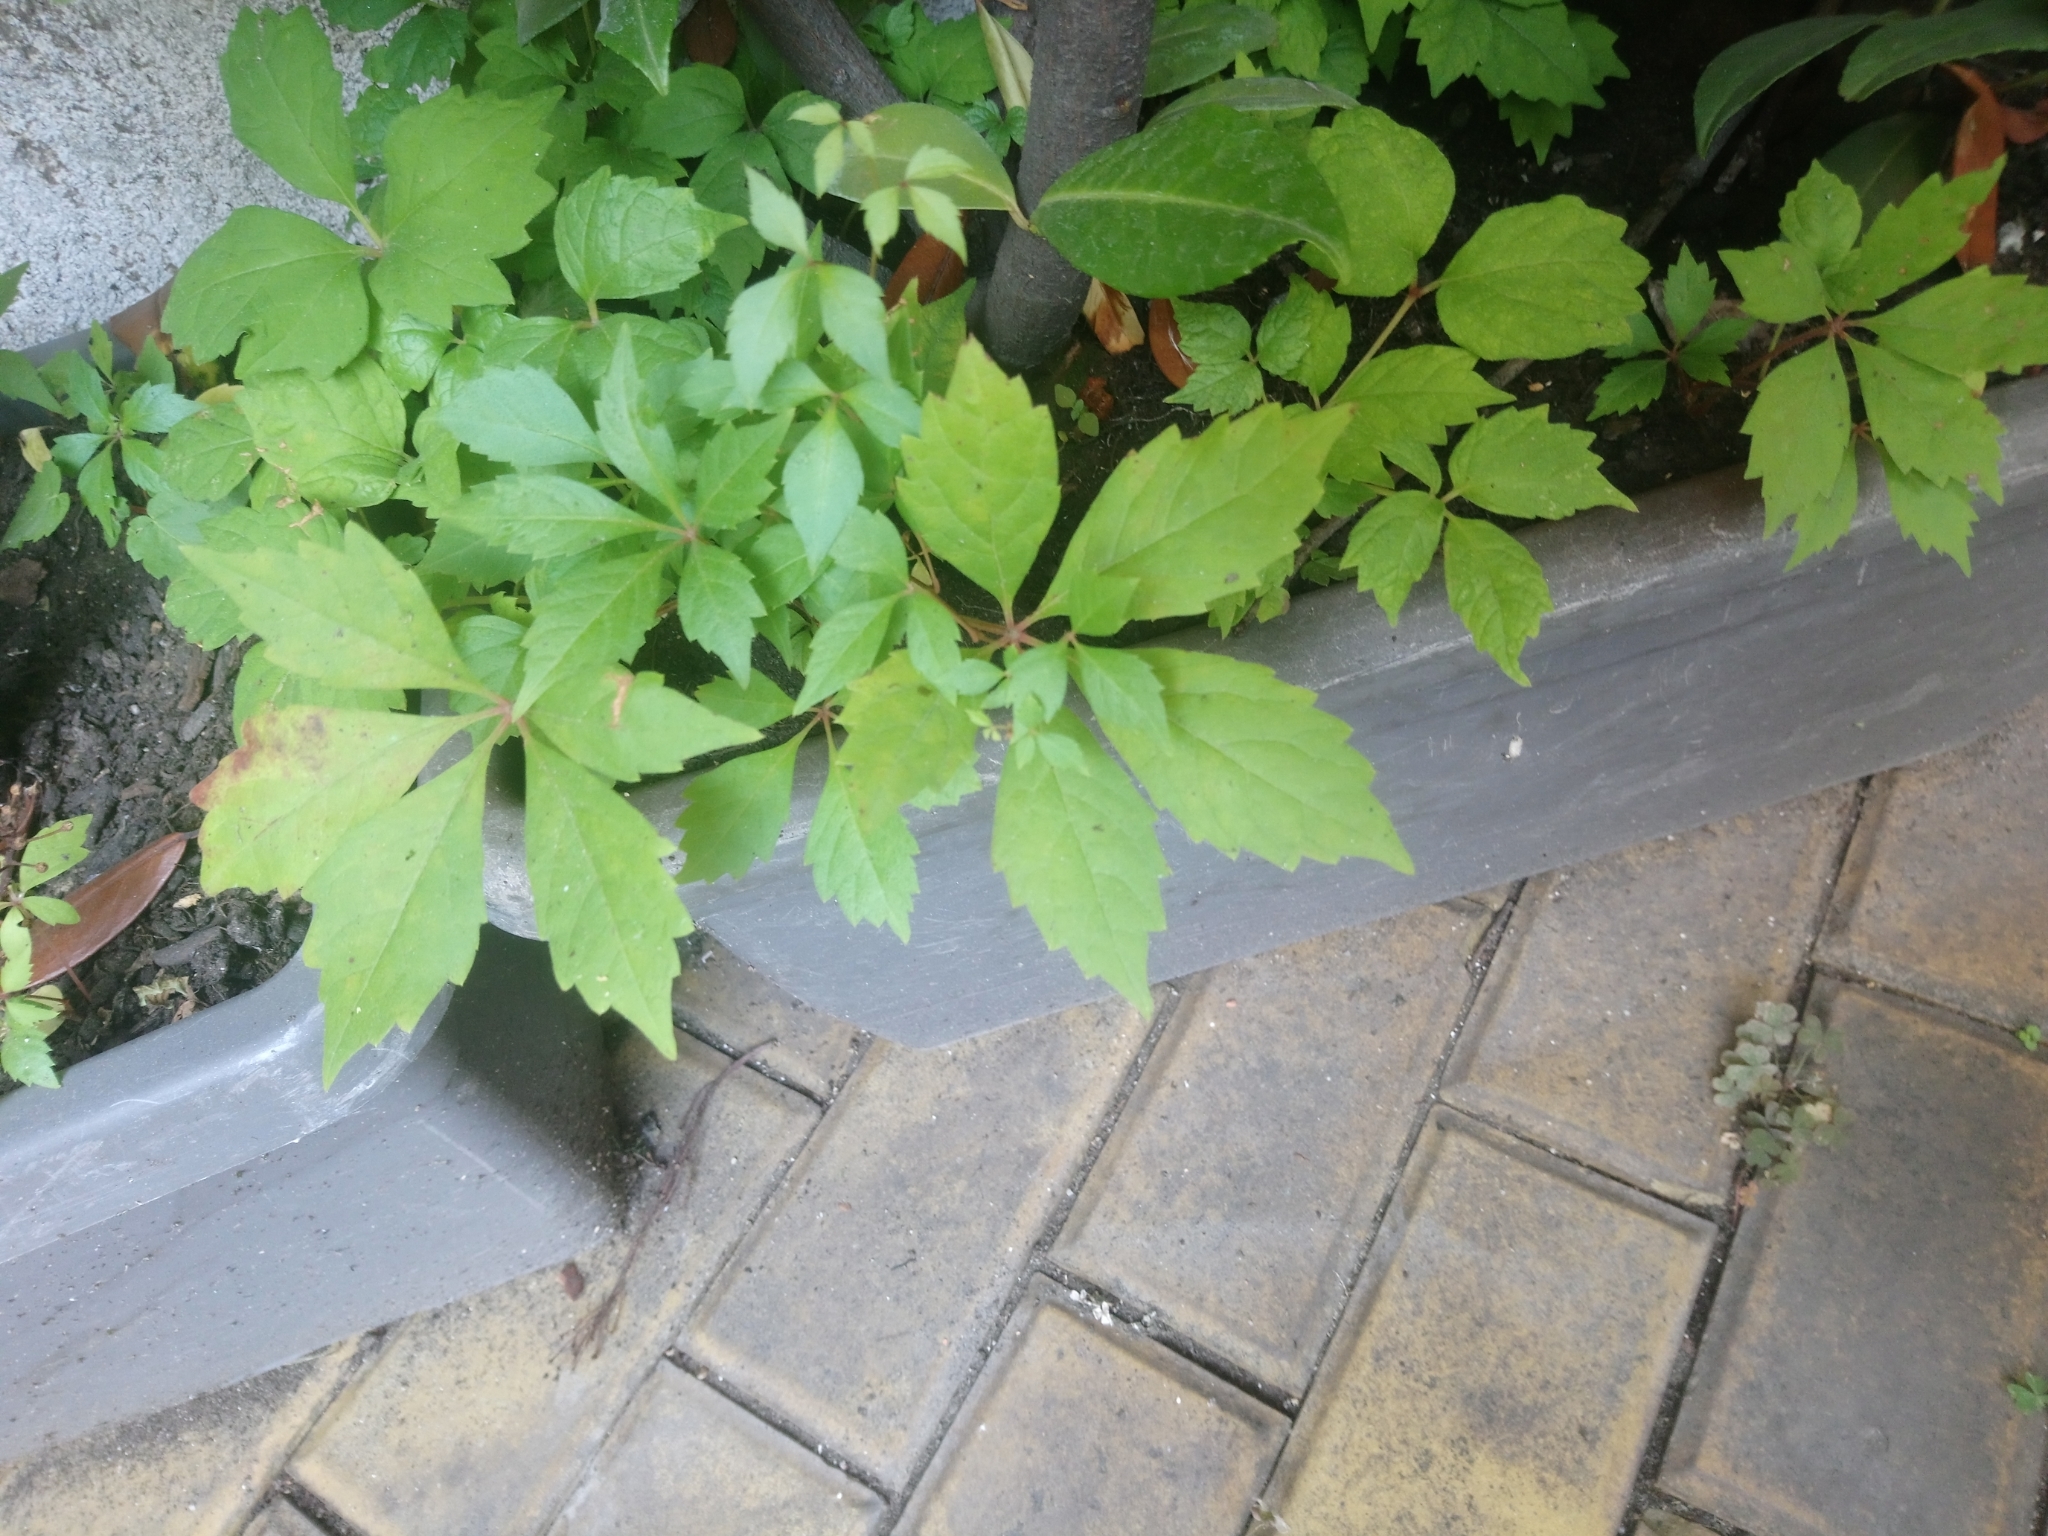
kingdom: Plantae
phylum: Tracheophyta
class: Magnoliopsida
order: Vitales
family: Vitaceae
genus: Parthenocissus
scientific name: Parthenocissus quinquefolia
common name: Virginia-creeper
